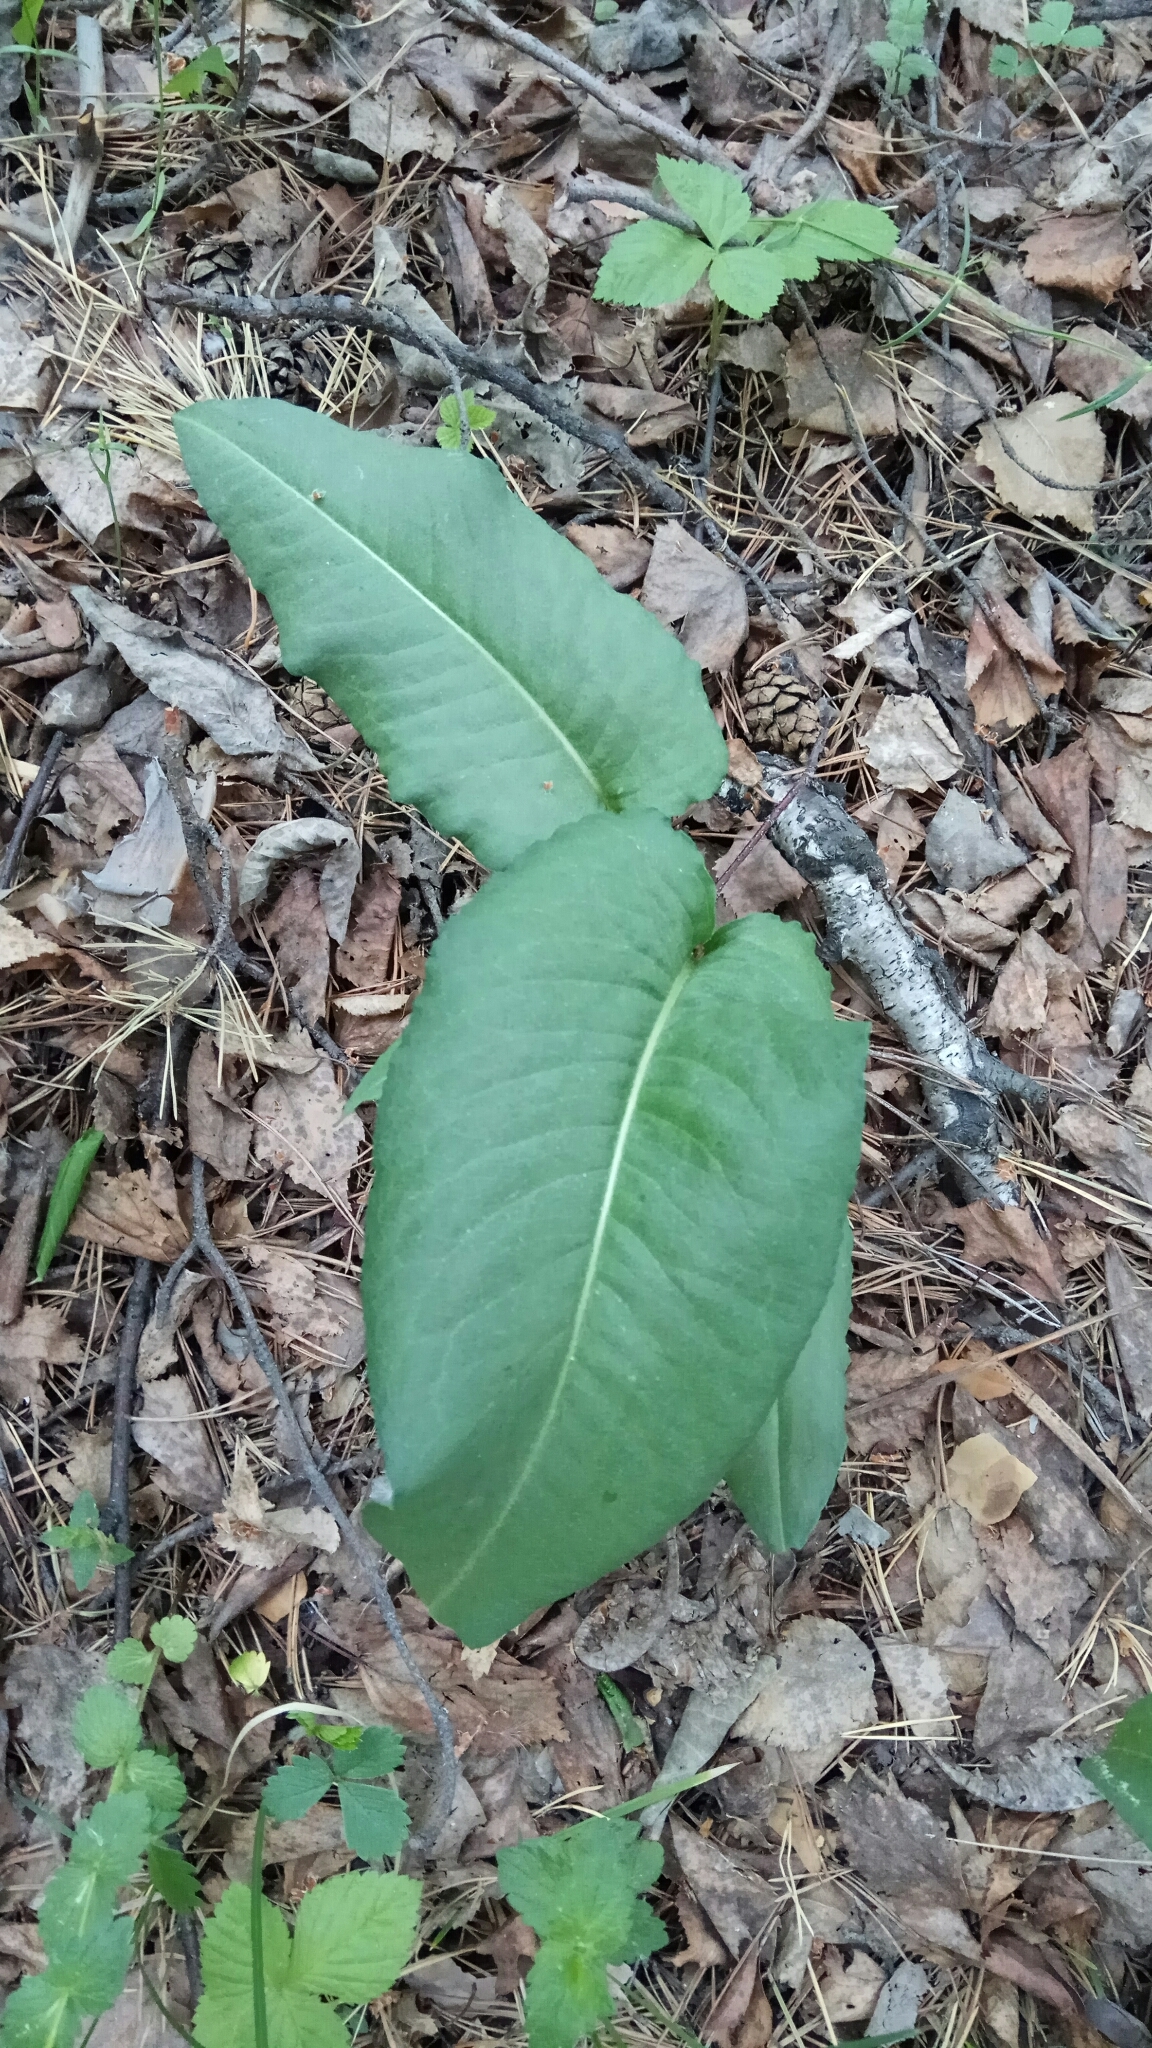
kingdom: Plantae
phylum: Tracheophyta
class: Magnoliopsida
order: Caryophyllales
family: Polygonaceae
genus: Bistorta
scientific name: Bistorta officinalis
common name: Common bistort
